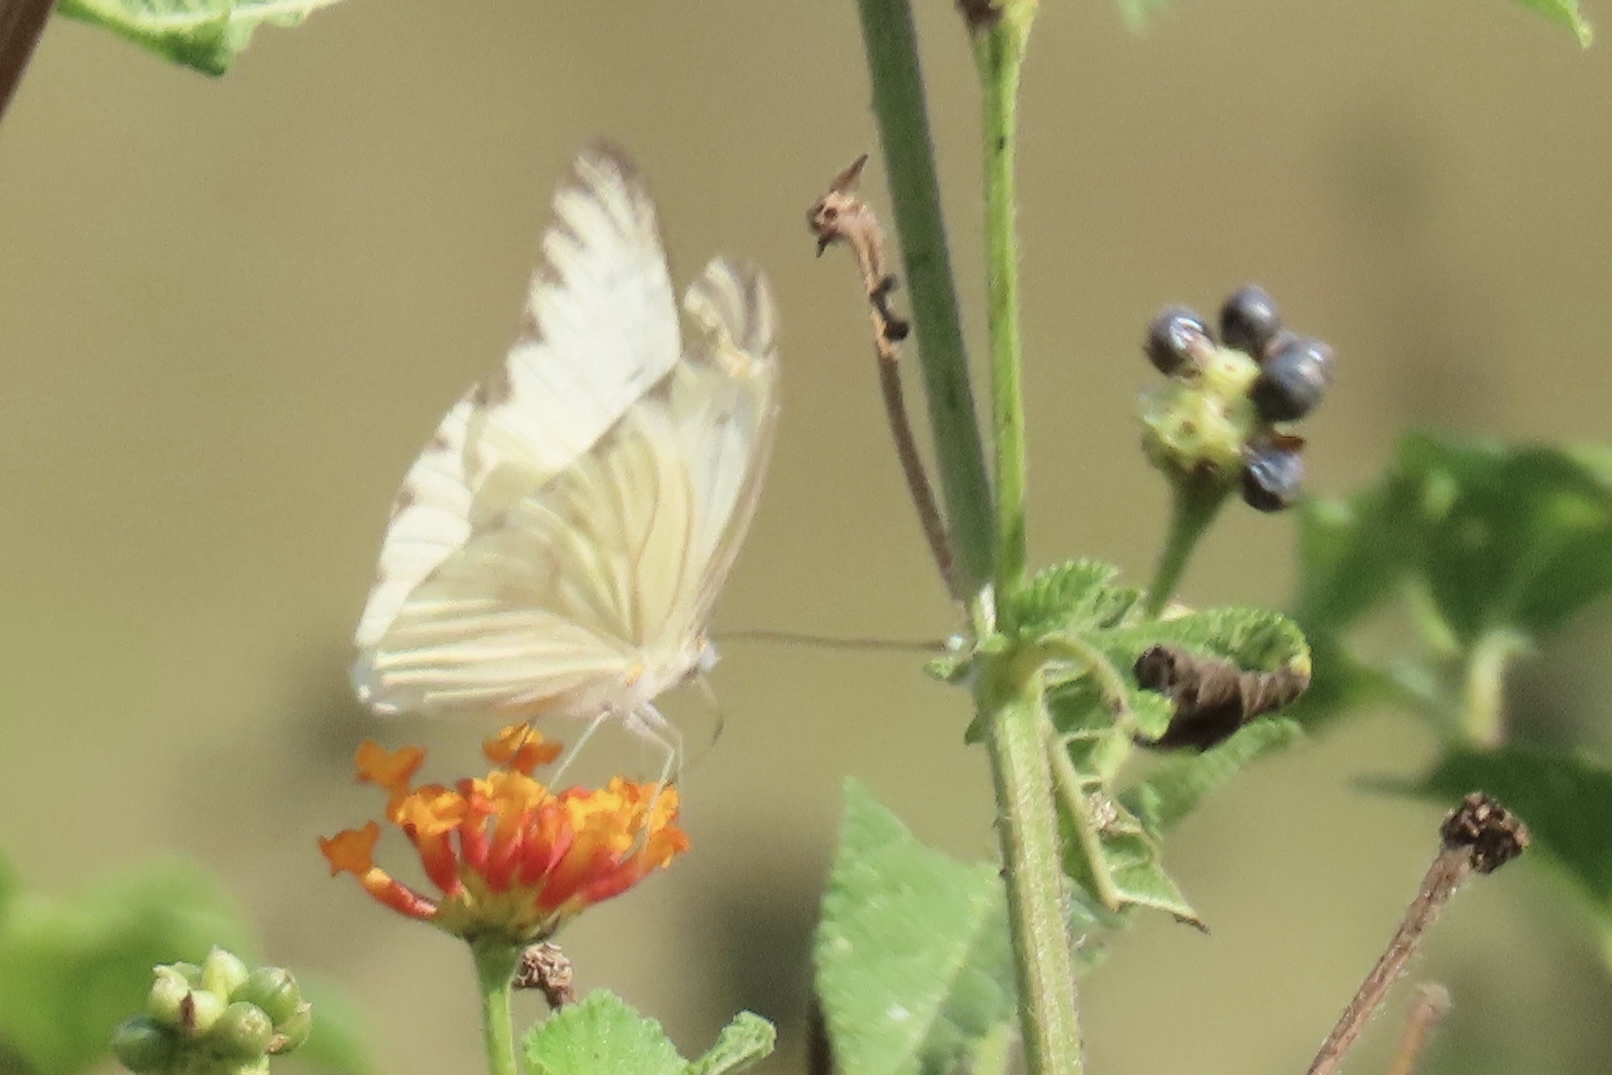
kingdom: Animalia
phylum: Arthropoda
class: Insecta
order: Lepidoptera
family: Pieridae
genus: Ascia
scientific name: Ascia monuste
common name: Great southern white
